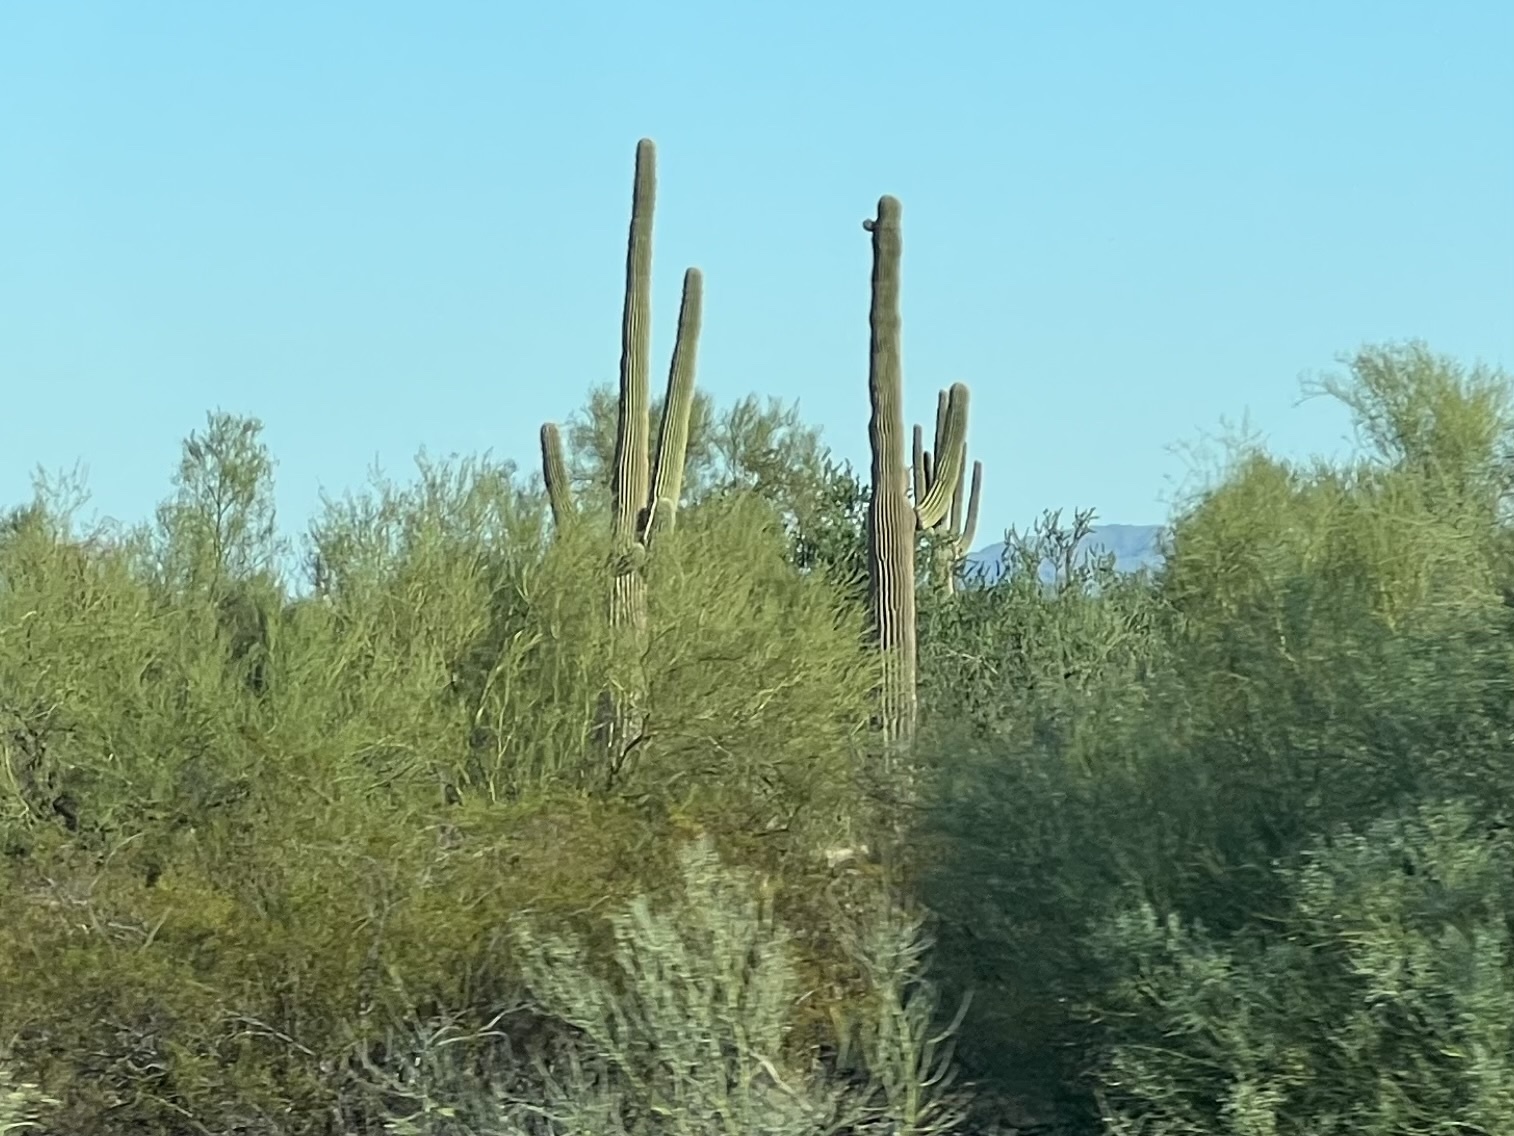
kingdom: Plantae
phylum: Tracheophyta
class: Magnoliopsida
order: Caryophyllales
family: Cactaceae
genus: Carnegiea
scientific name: Carnegiea gigantea
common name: Saguaro
